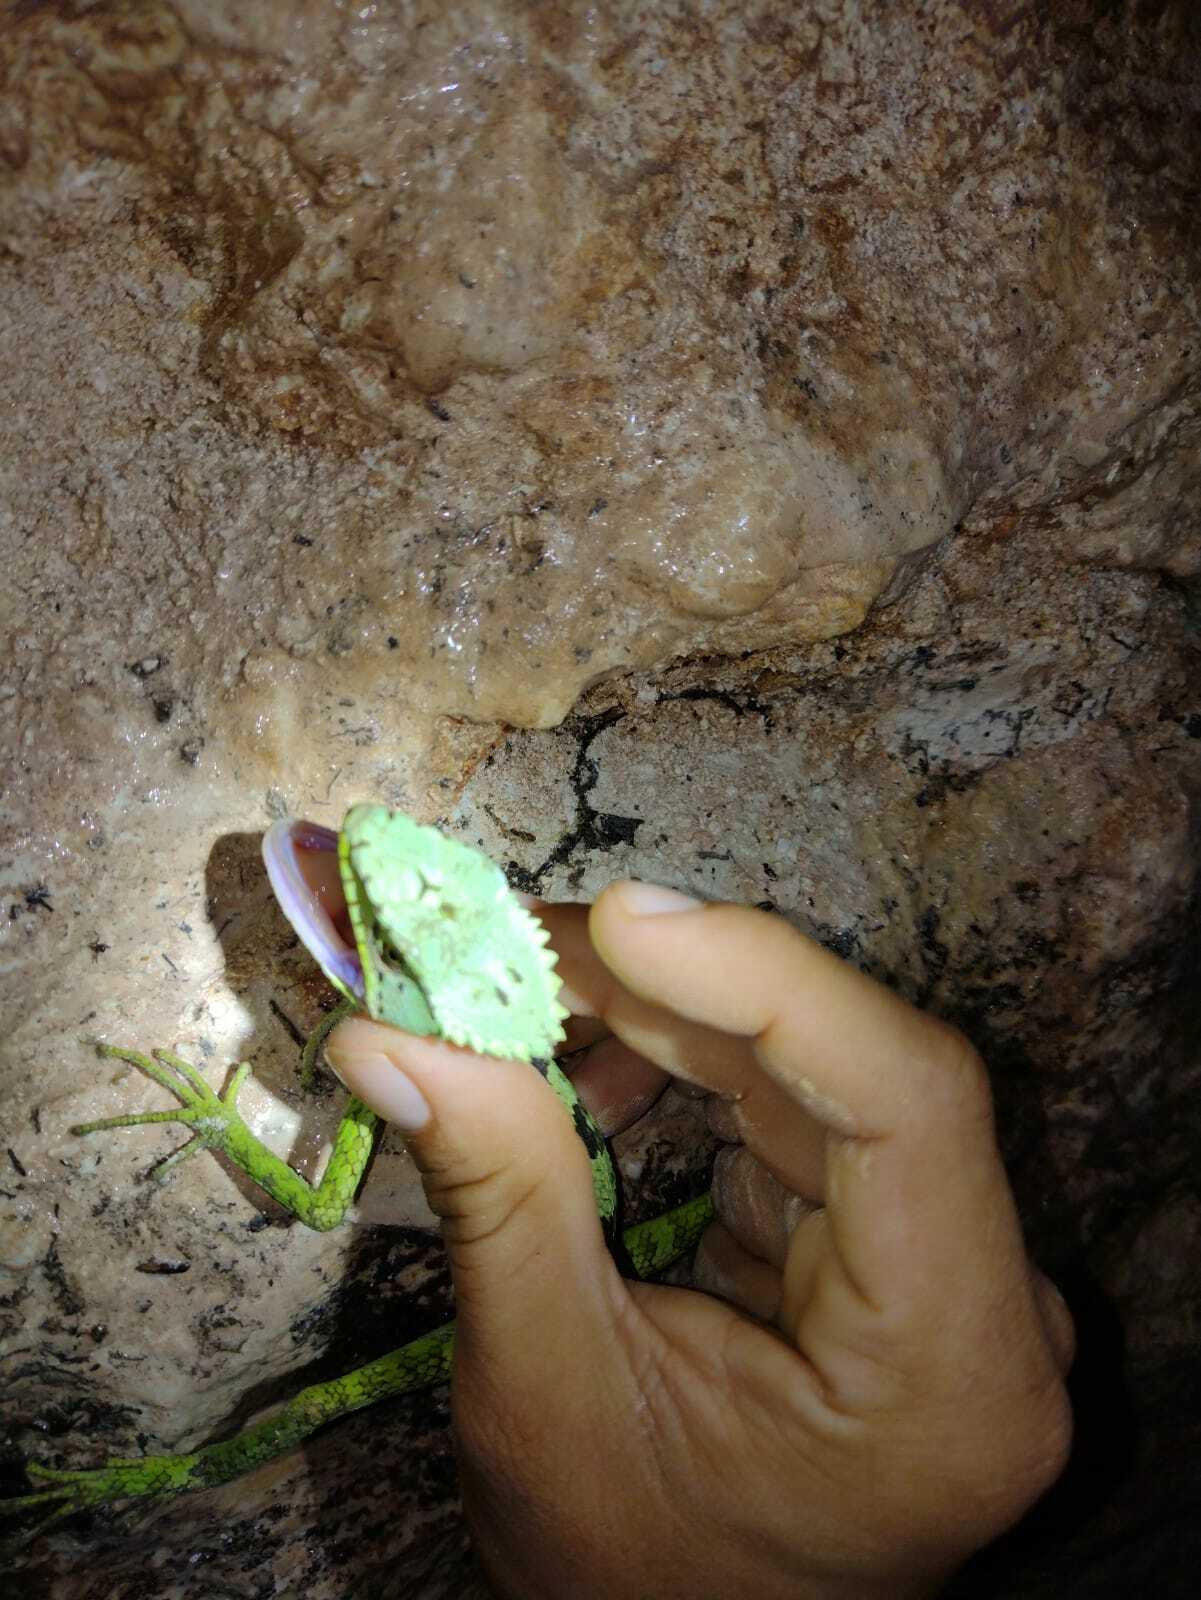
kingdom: Animalia
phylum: Chordata
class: Squamata
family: Corytophanidae
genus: Laemanctus
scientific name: Laemanctus serratus
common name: Serrated casquehead iguana
